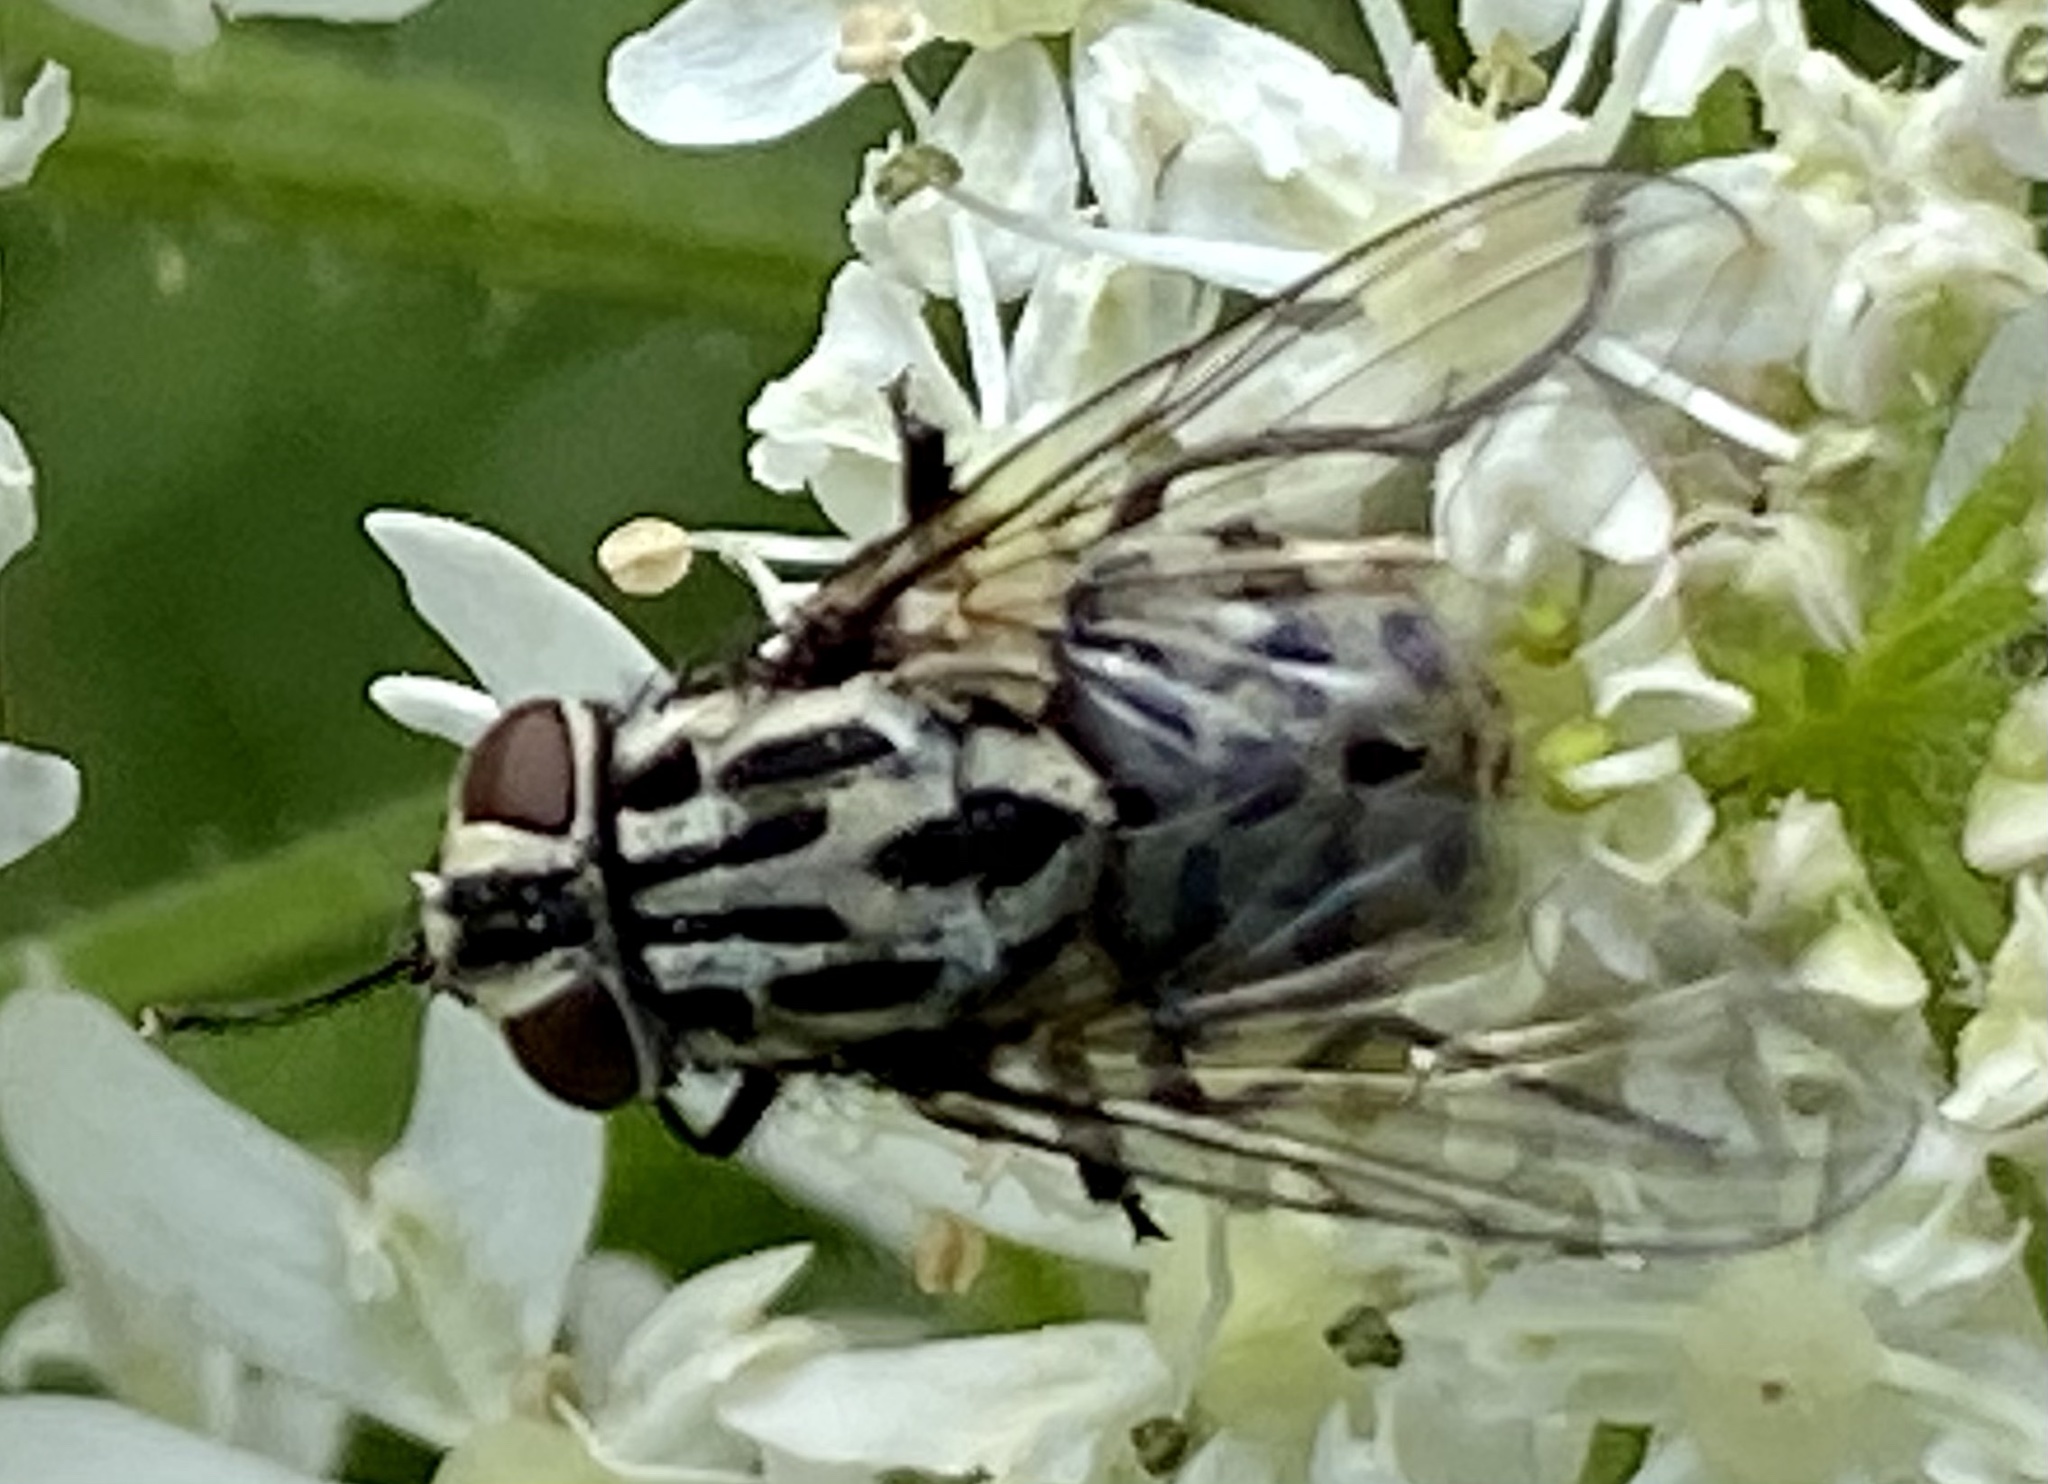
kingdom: Animalia
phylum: Arthropoda
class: Insecta
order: Diptera
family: Muscidae
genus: Graphomya
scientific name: Graphomya maculata
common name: Muscid fly
